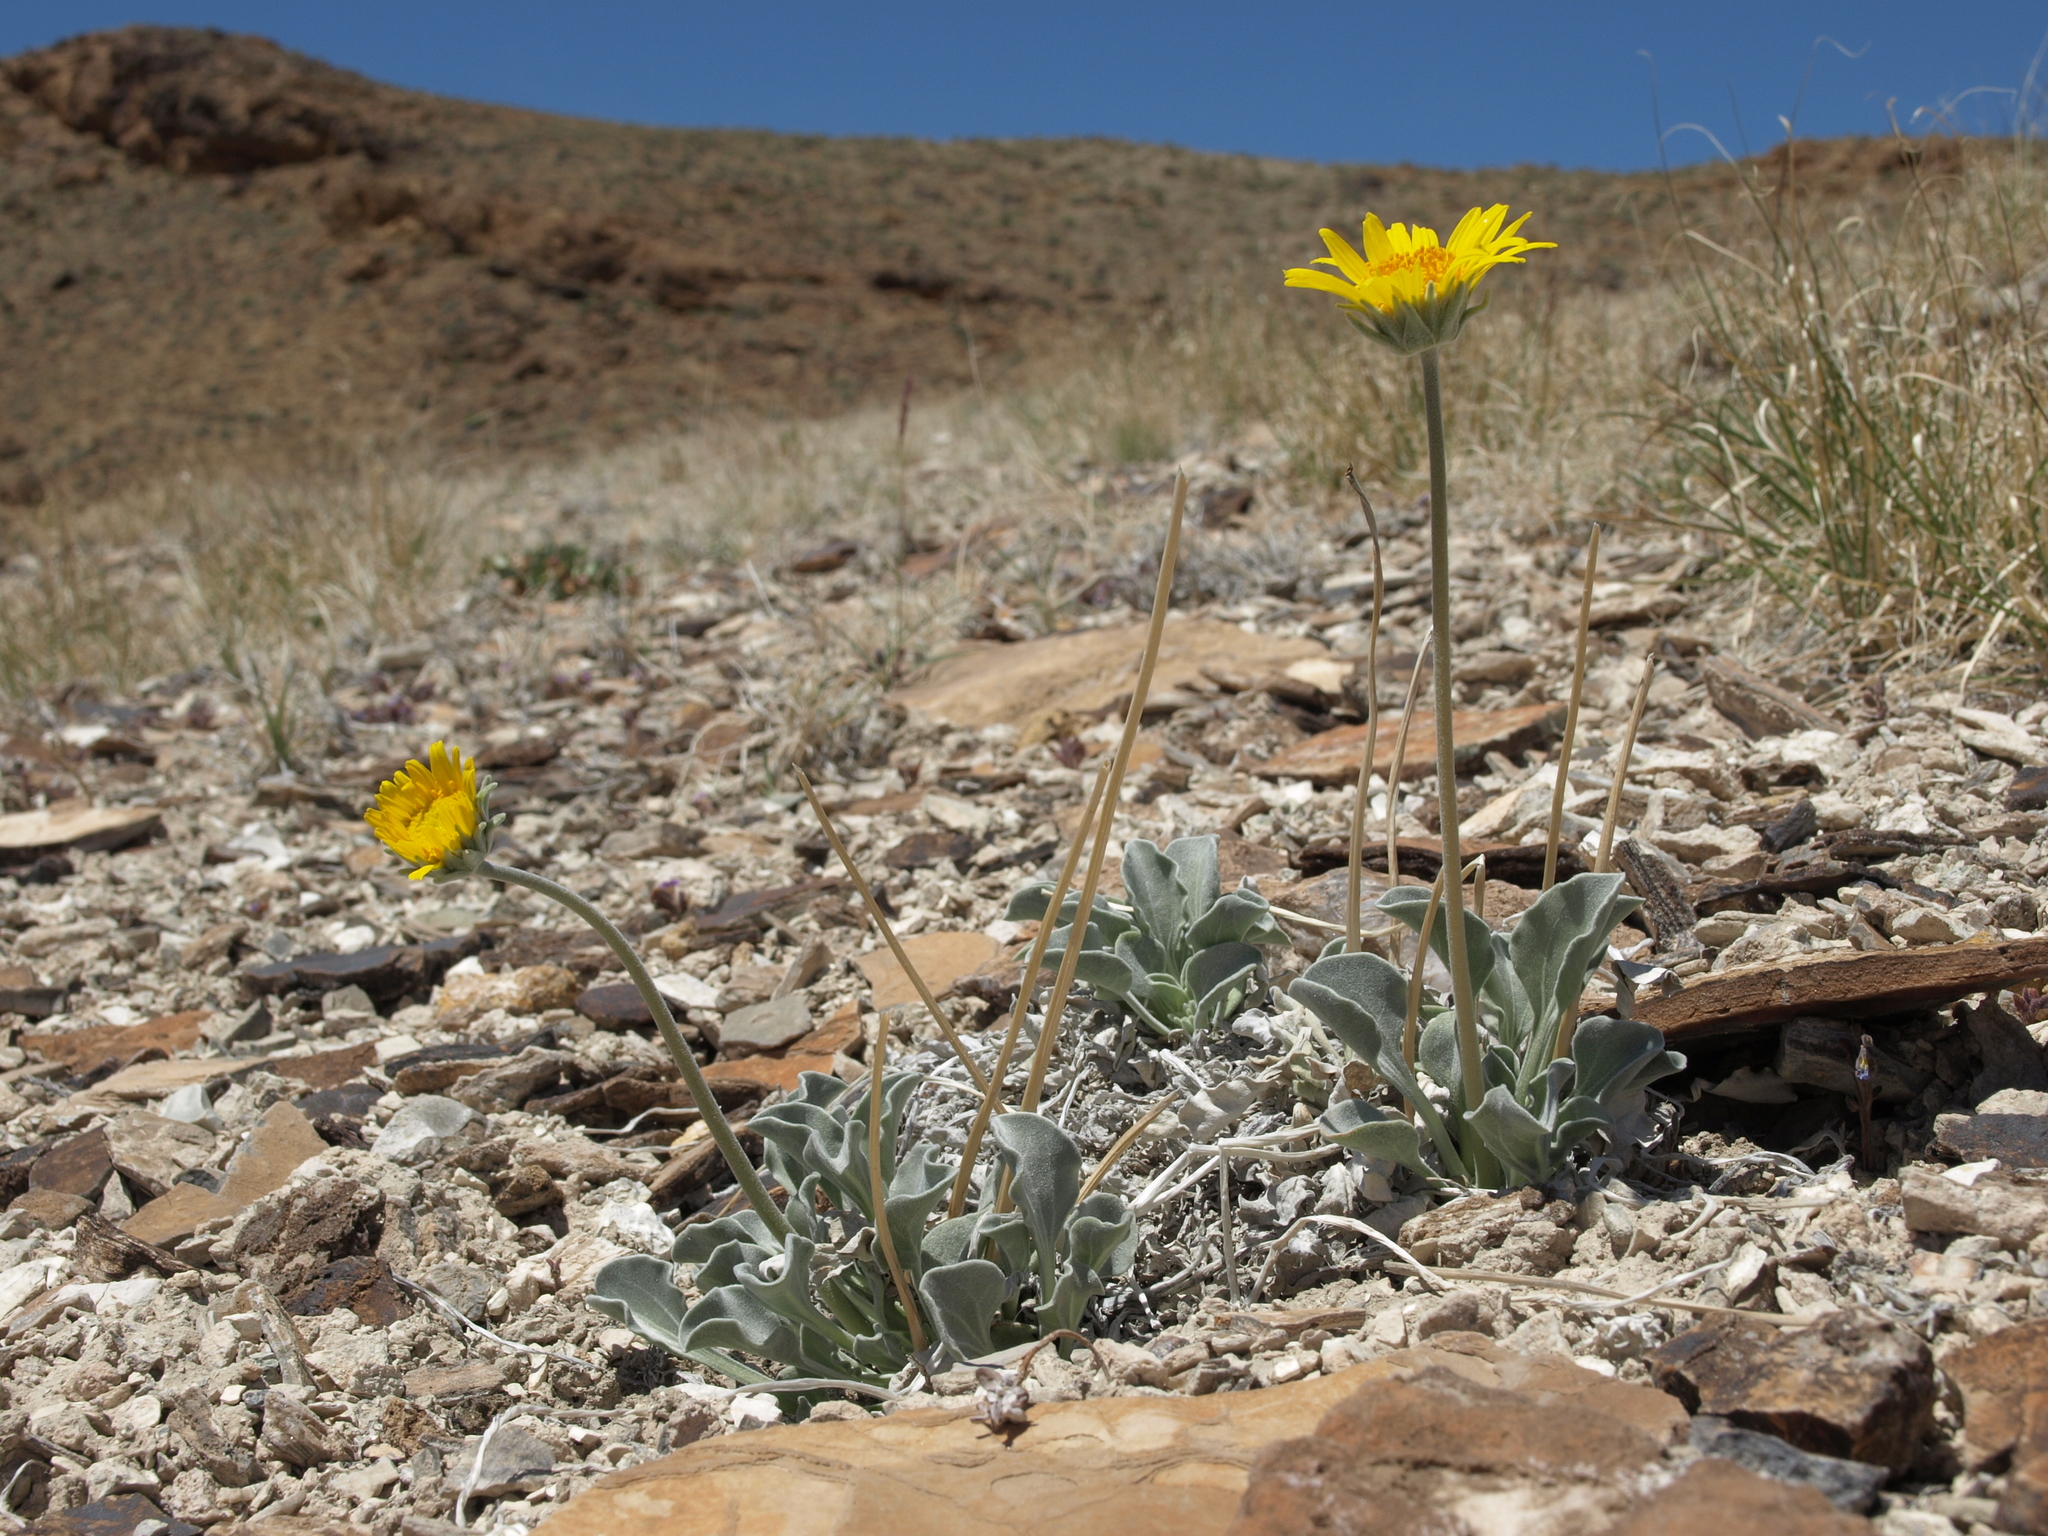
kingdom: Plantae
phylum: Tracheophyta
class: Magnoliopsida
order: Asterales
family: Asteraceae
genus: Enceliopsis
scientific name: Enceliopsis nudicaulis
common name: Naked-stem daisy
